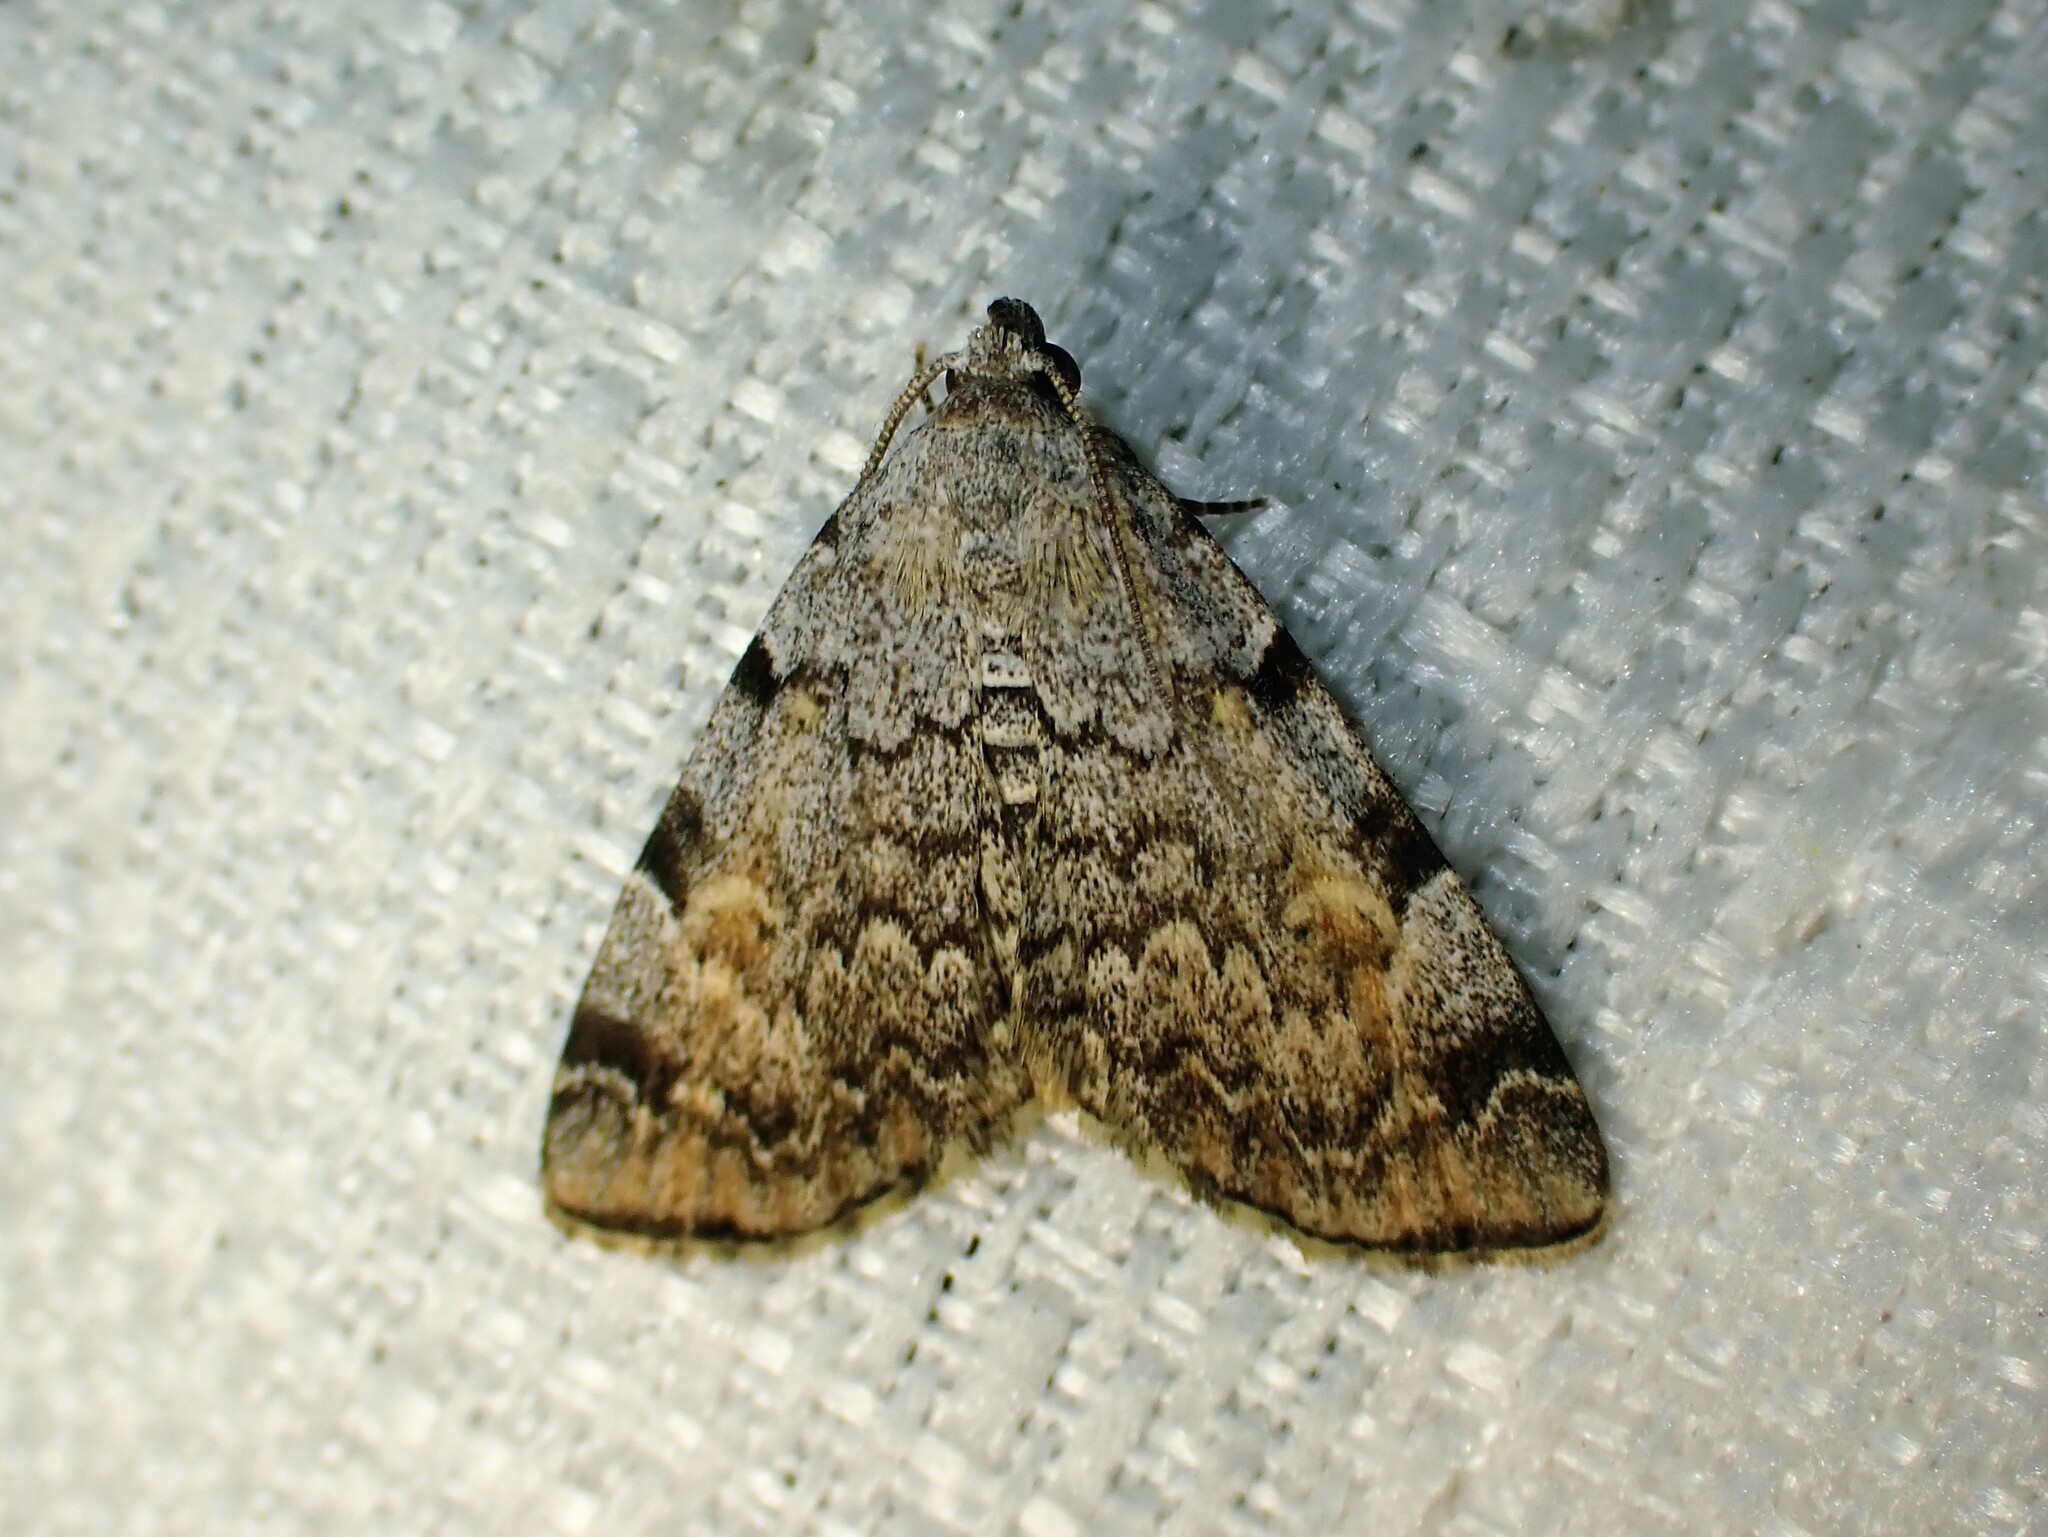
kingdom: Animalia
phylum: Arthropoda
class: Insecta
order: Lepidoptera
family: Erebidae
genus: Idia
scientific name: Idia americalis
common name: American idia moth
